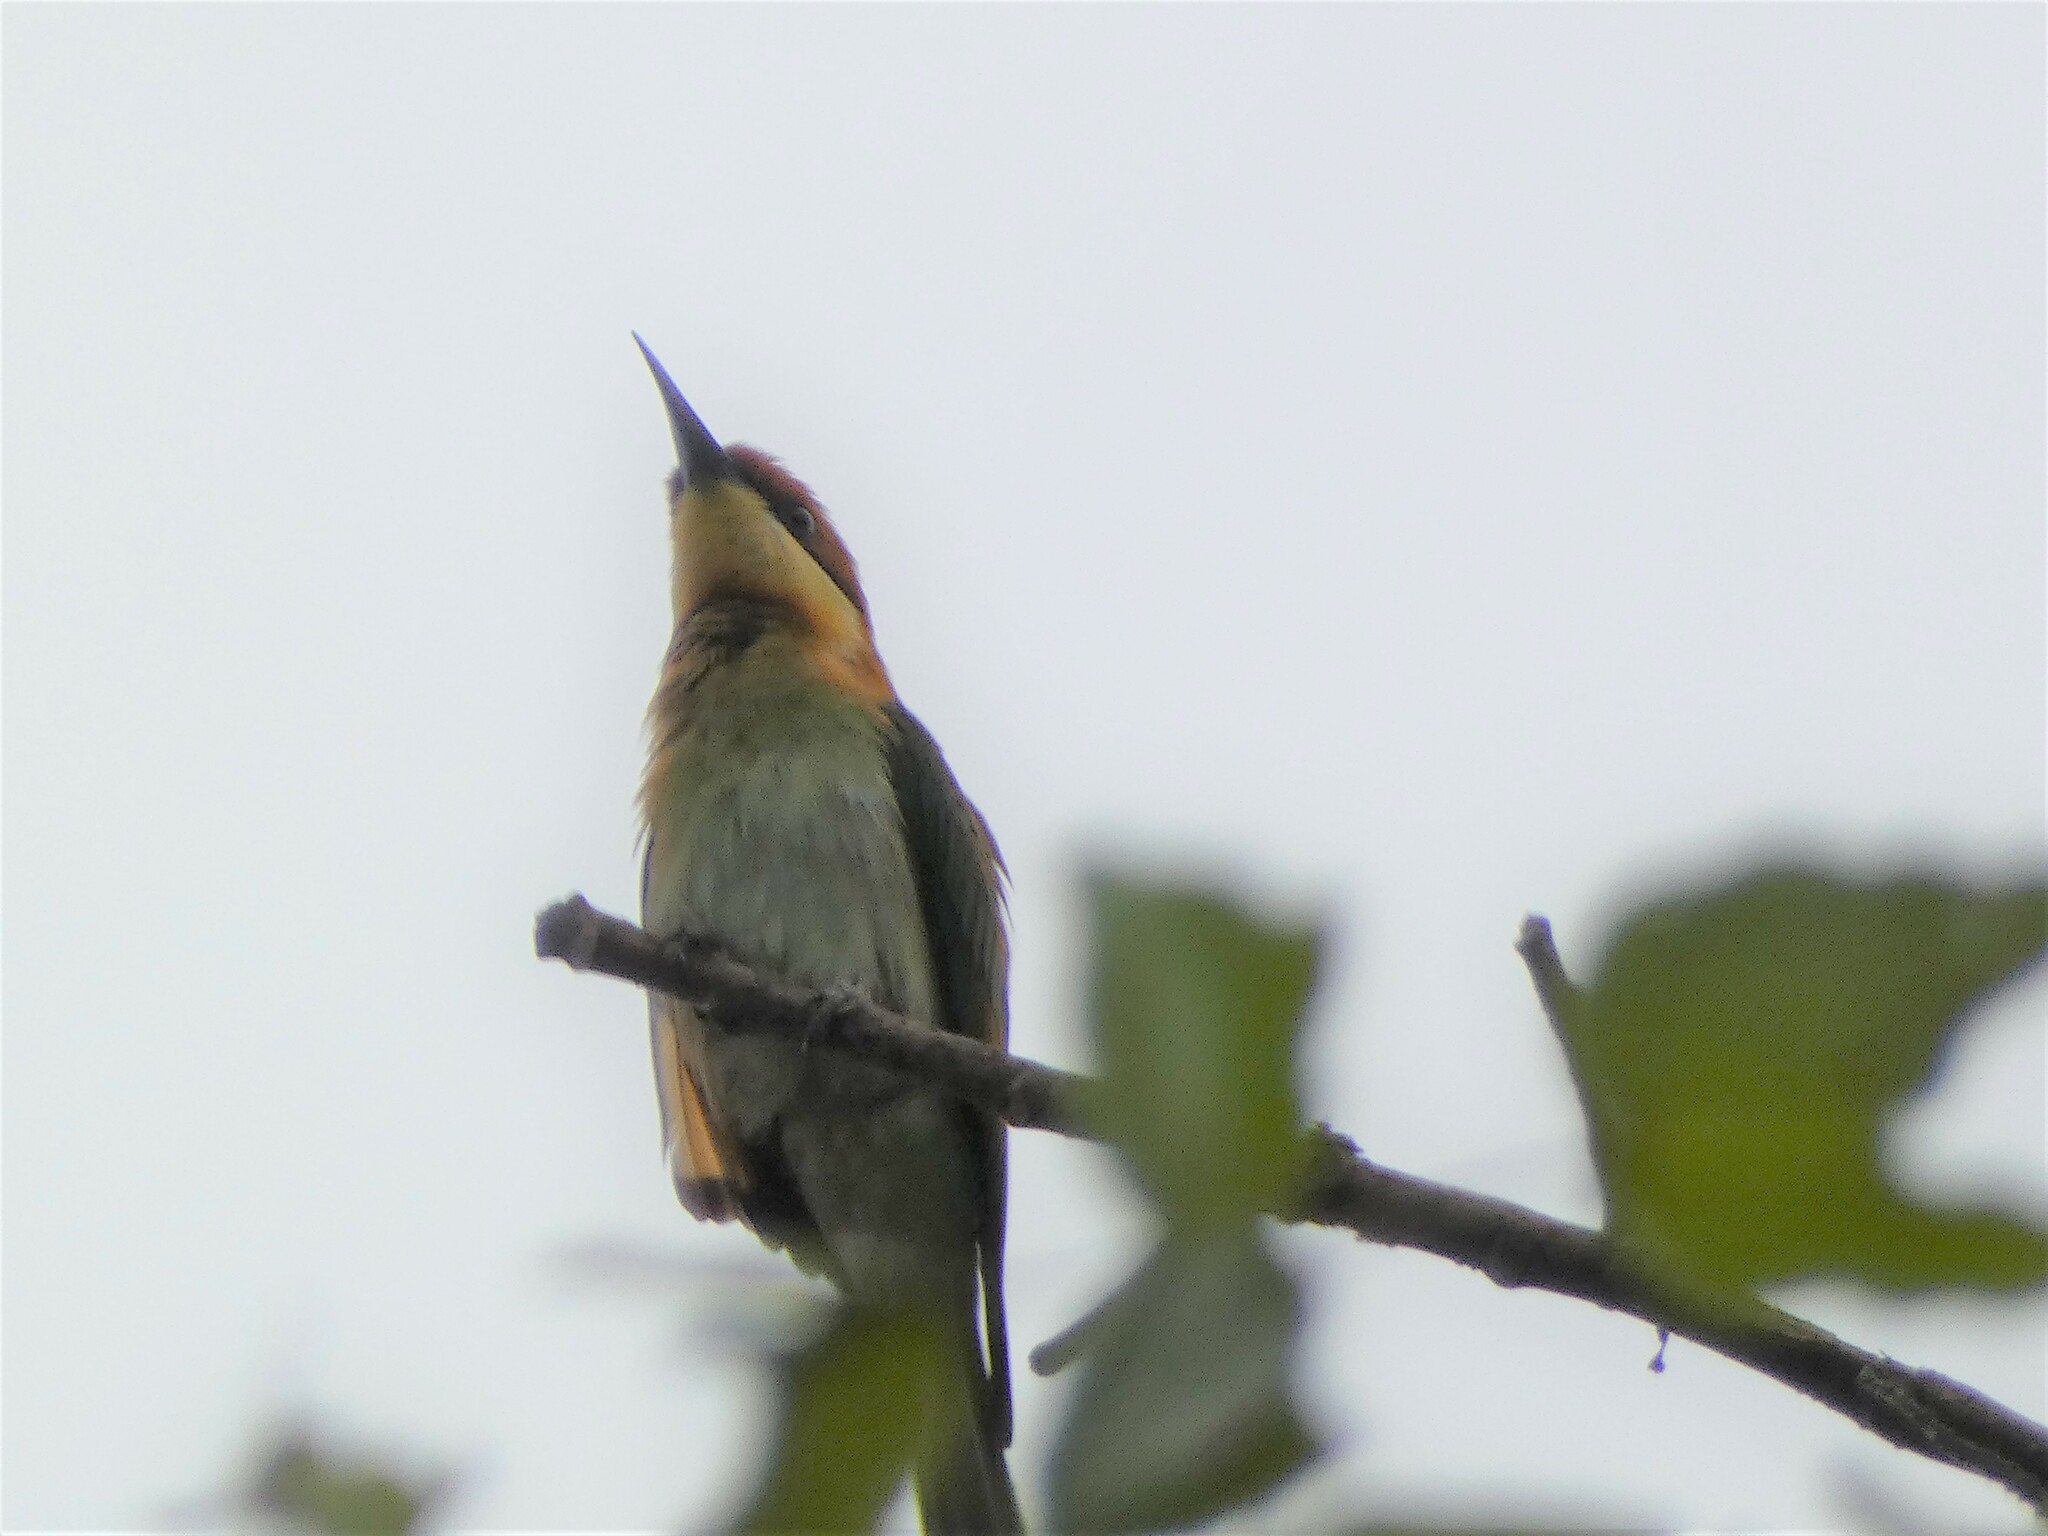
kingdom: Animalia
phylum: Chordata
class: Aves
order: Coraciiformes
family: Meropidae
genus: Merops
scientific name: Merops leschenaulti
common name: Chestnut-headed bee-eater
